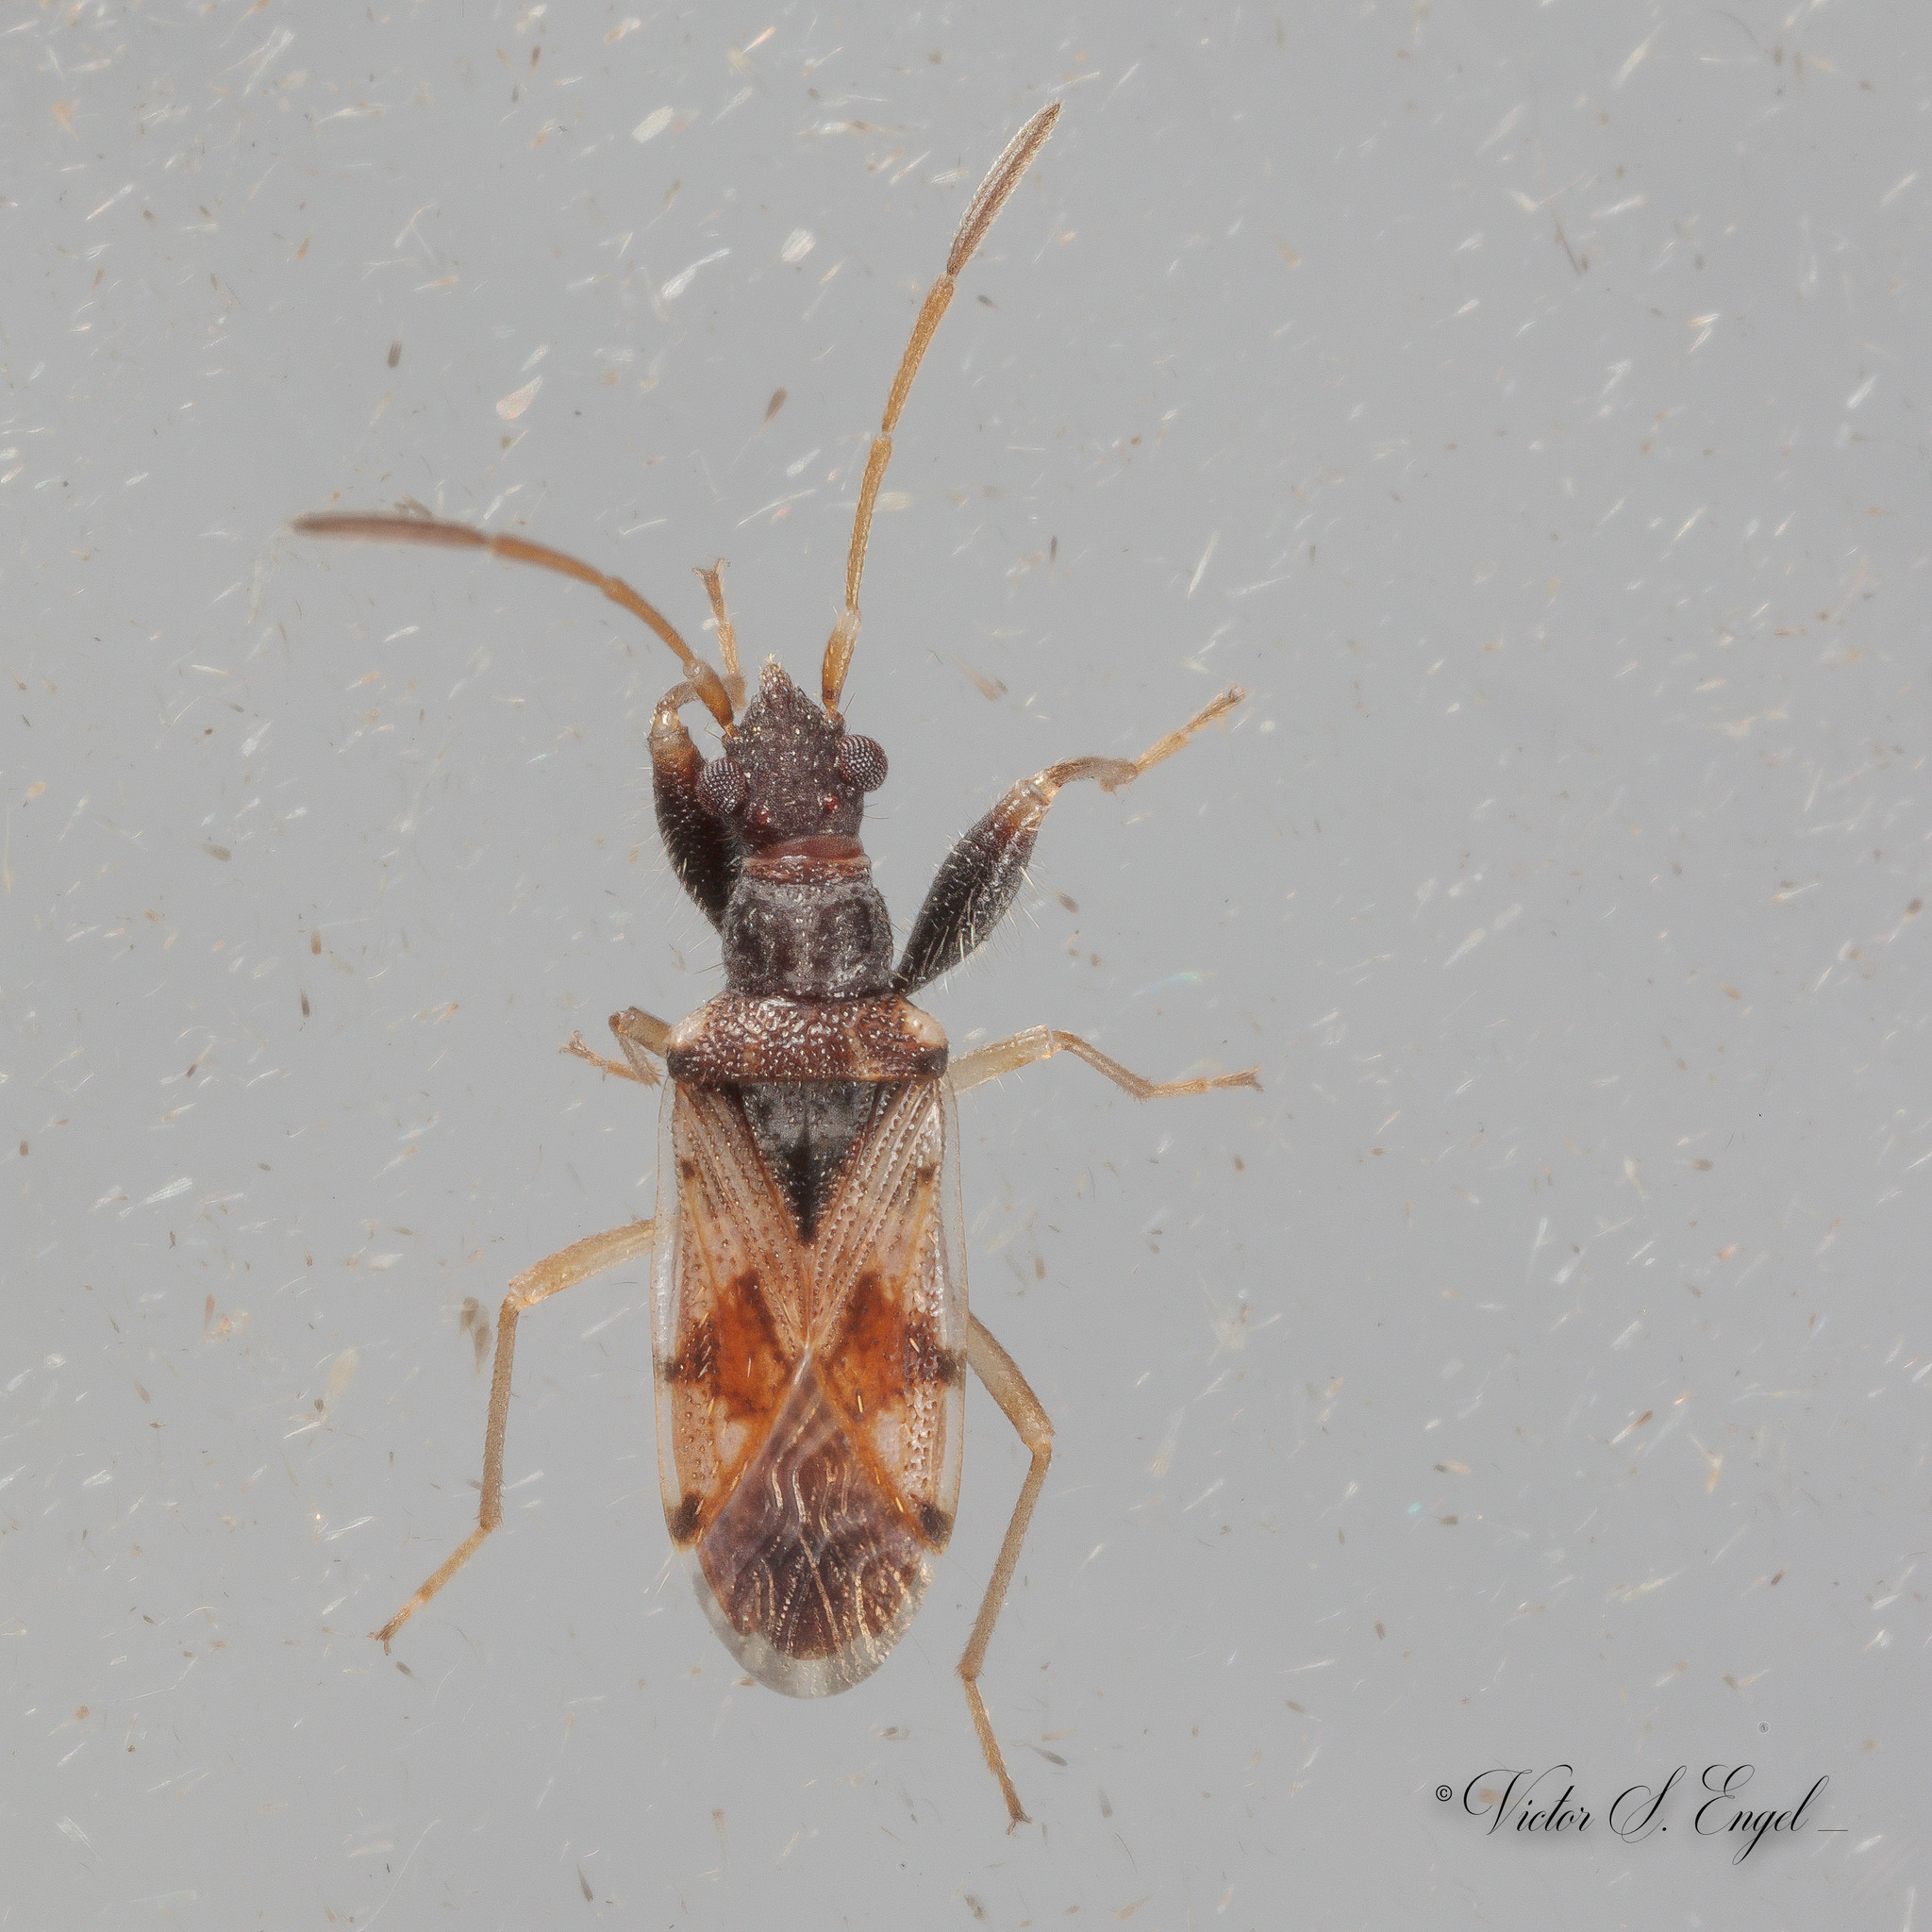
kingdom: Animalia
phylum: Arthropoda
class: Insecta
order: Hemiptera
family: Rhyparochromidae
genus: Pseudopamera
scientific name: Pseudopamera setosa
